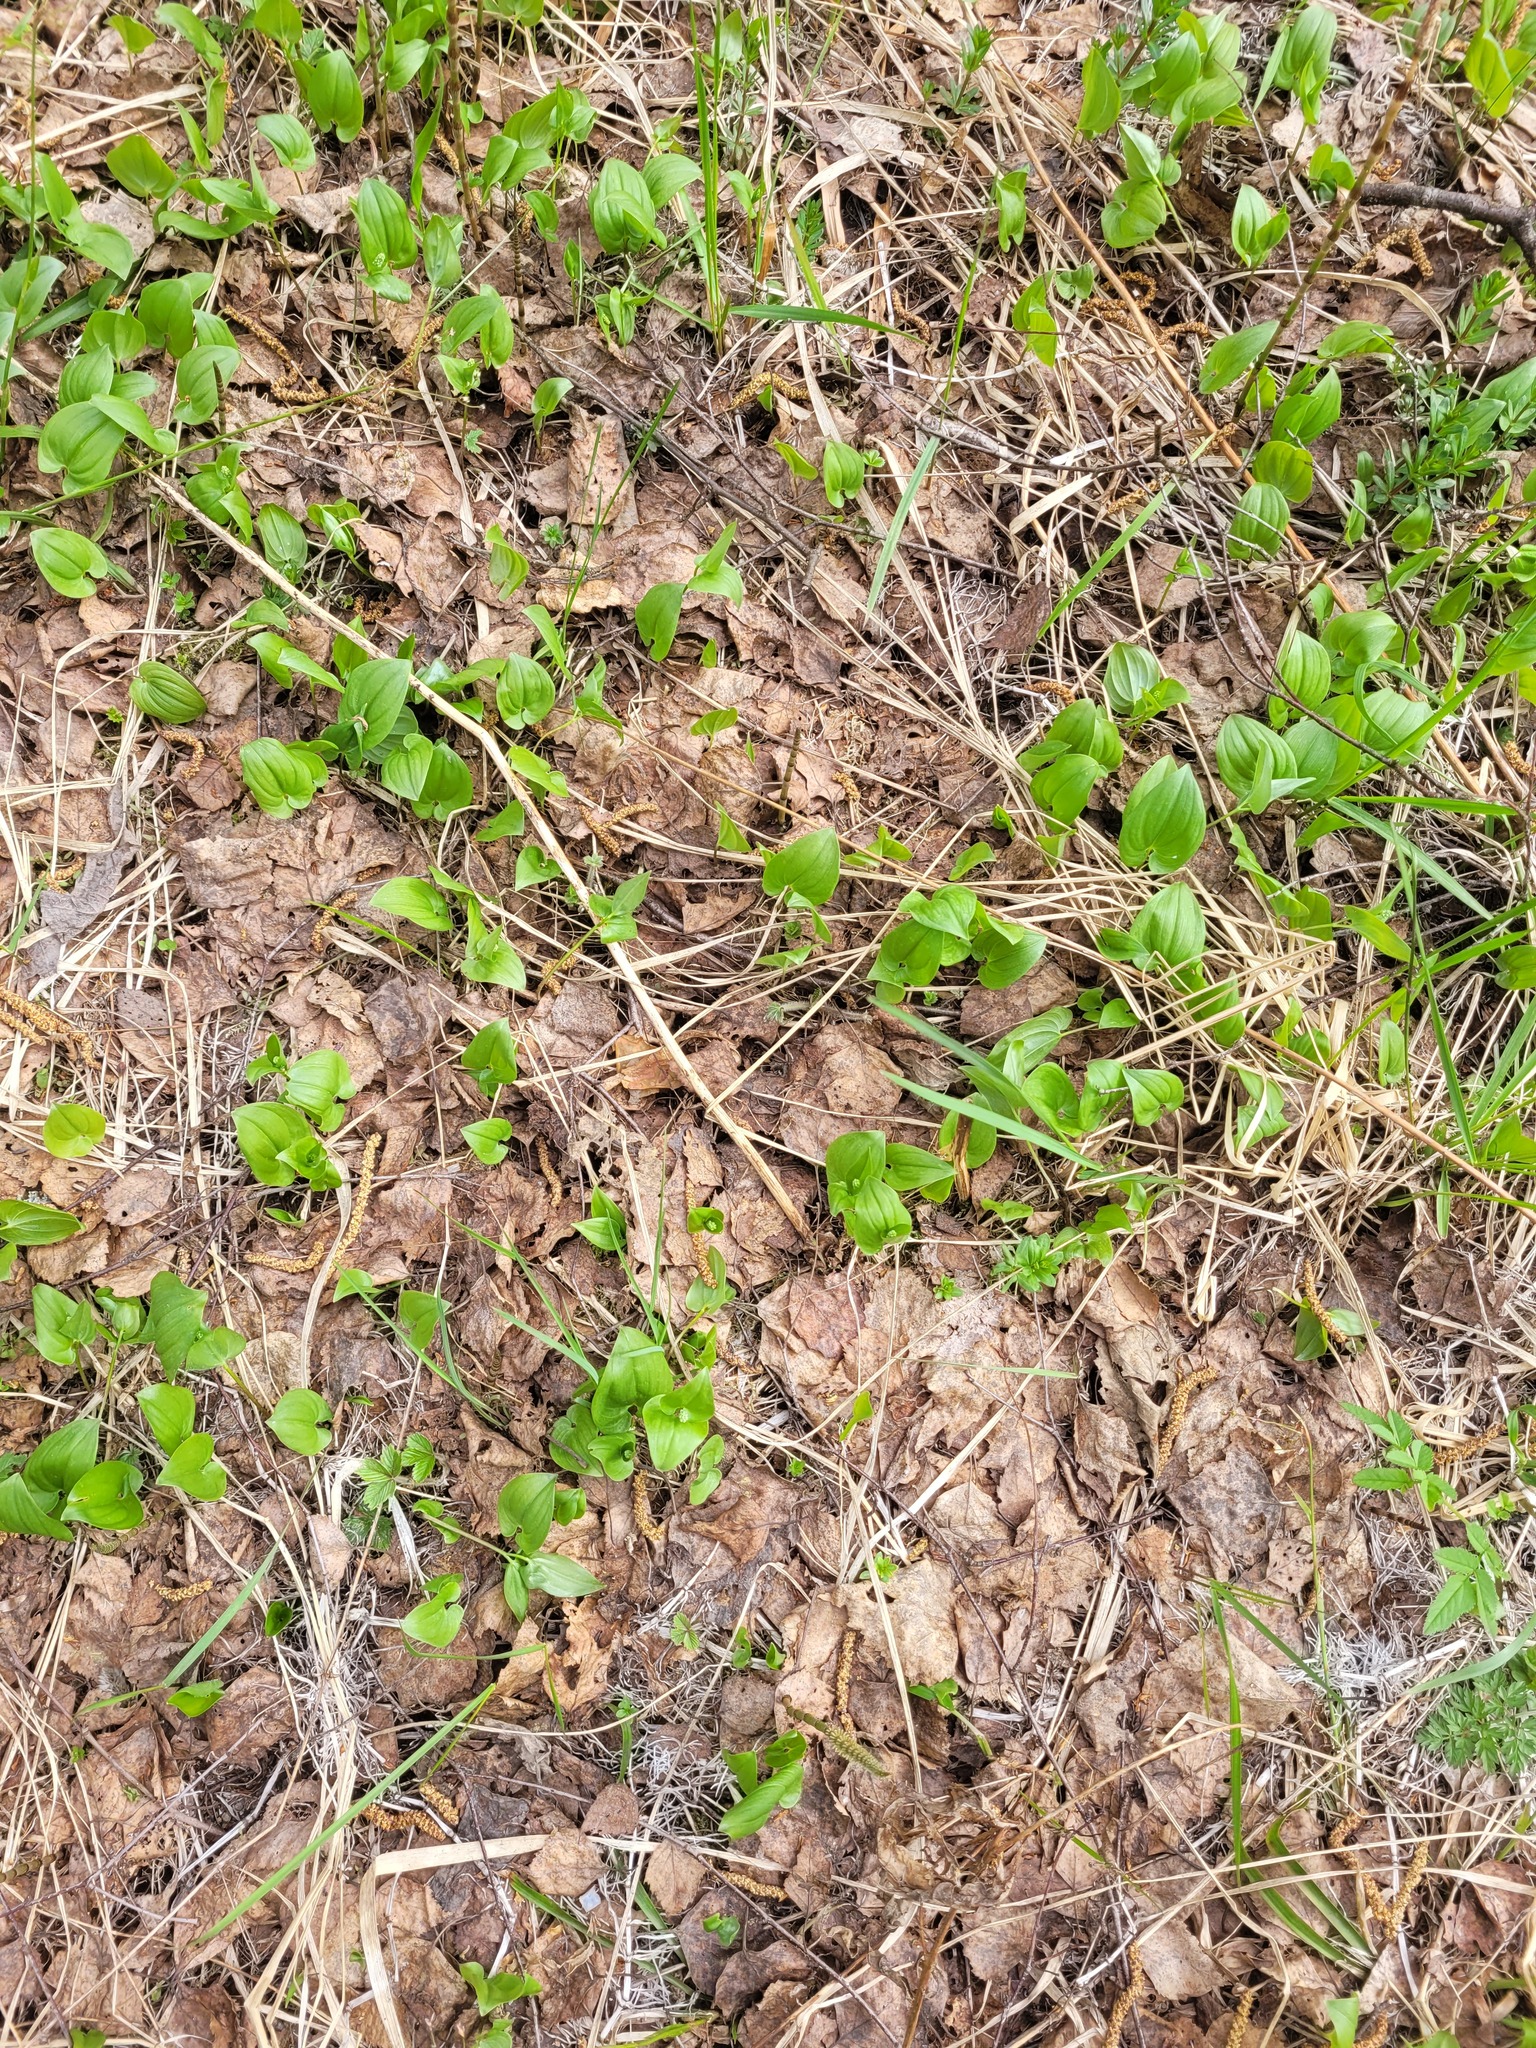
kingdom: Plantae
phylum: Tracheophyta
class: Liliopsida
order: Asparagales
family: Asparagaceae
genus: Maianthemum
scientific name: Maianthemum bifolium
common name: May lily
